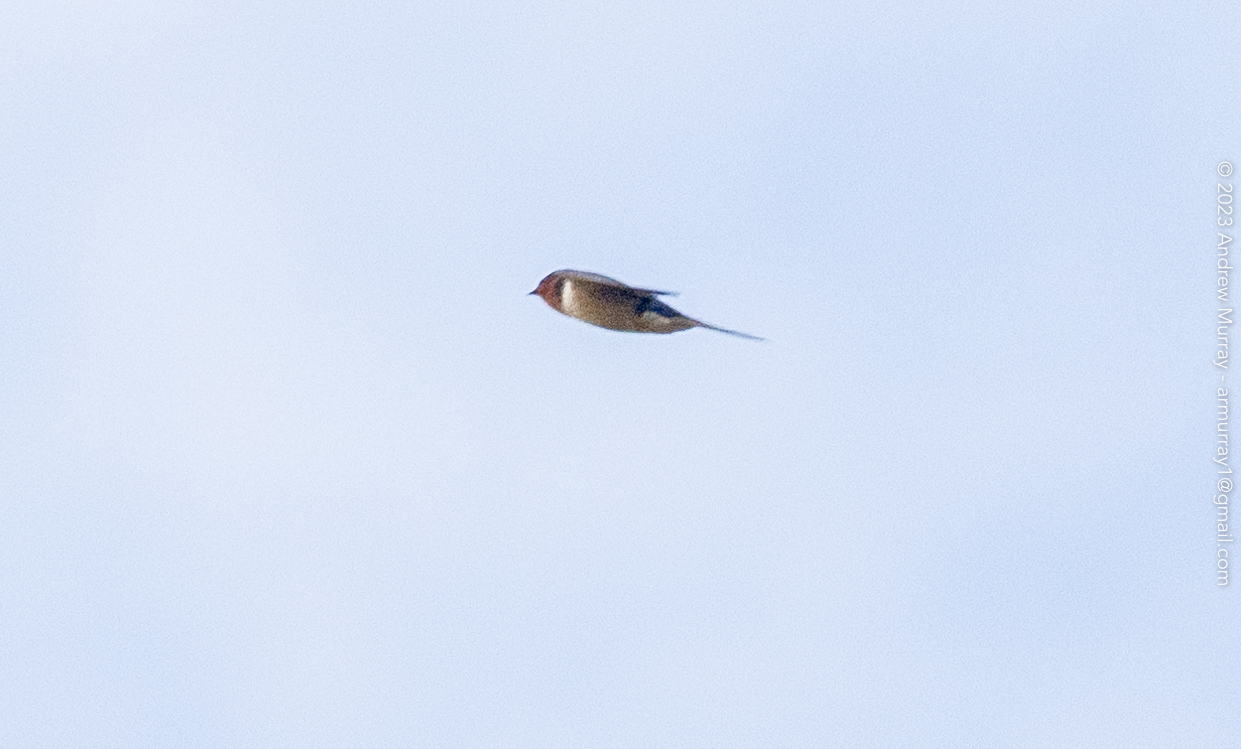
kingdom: Animalia
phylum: Chordata
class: Aves
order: Passeriformes
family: Hirundinidae
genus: Hirundo
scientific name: Hirundo rustica
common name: Barn swallow
